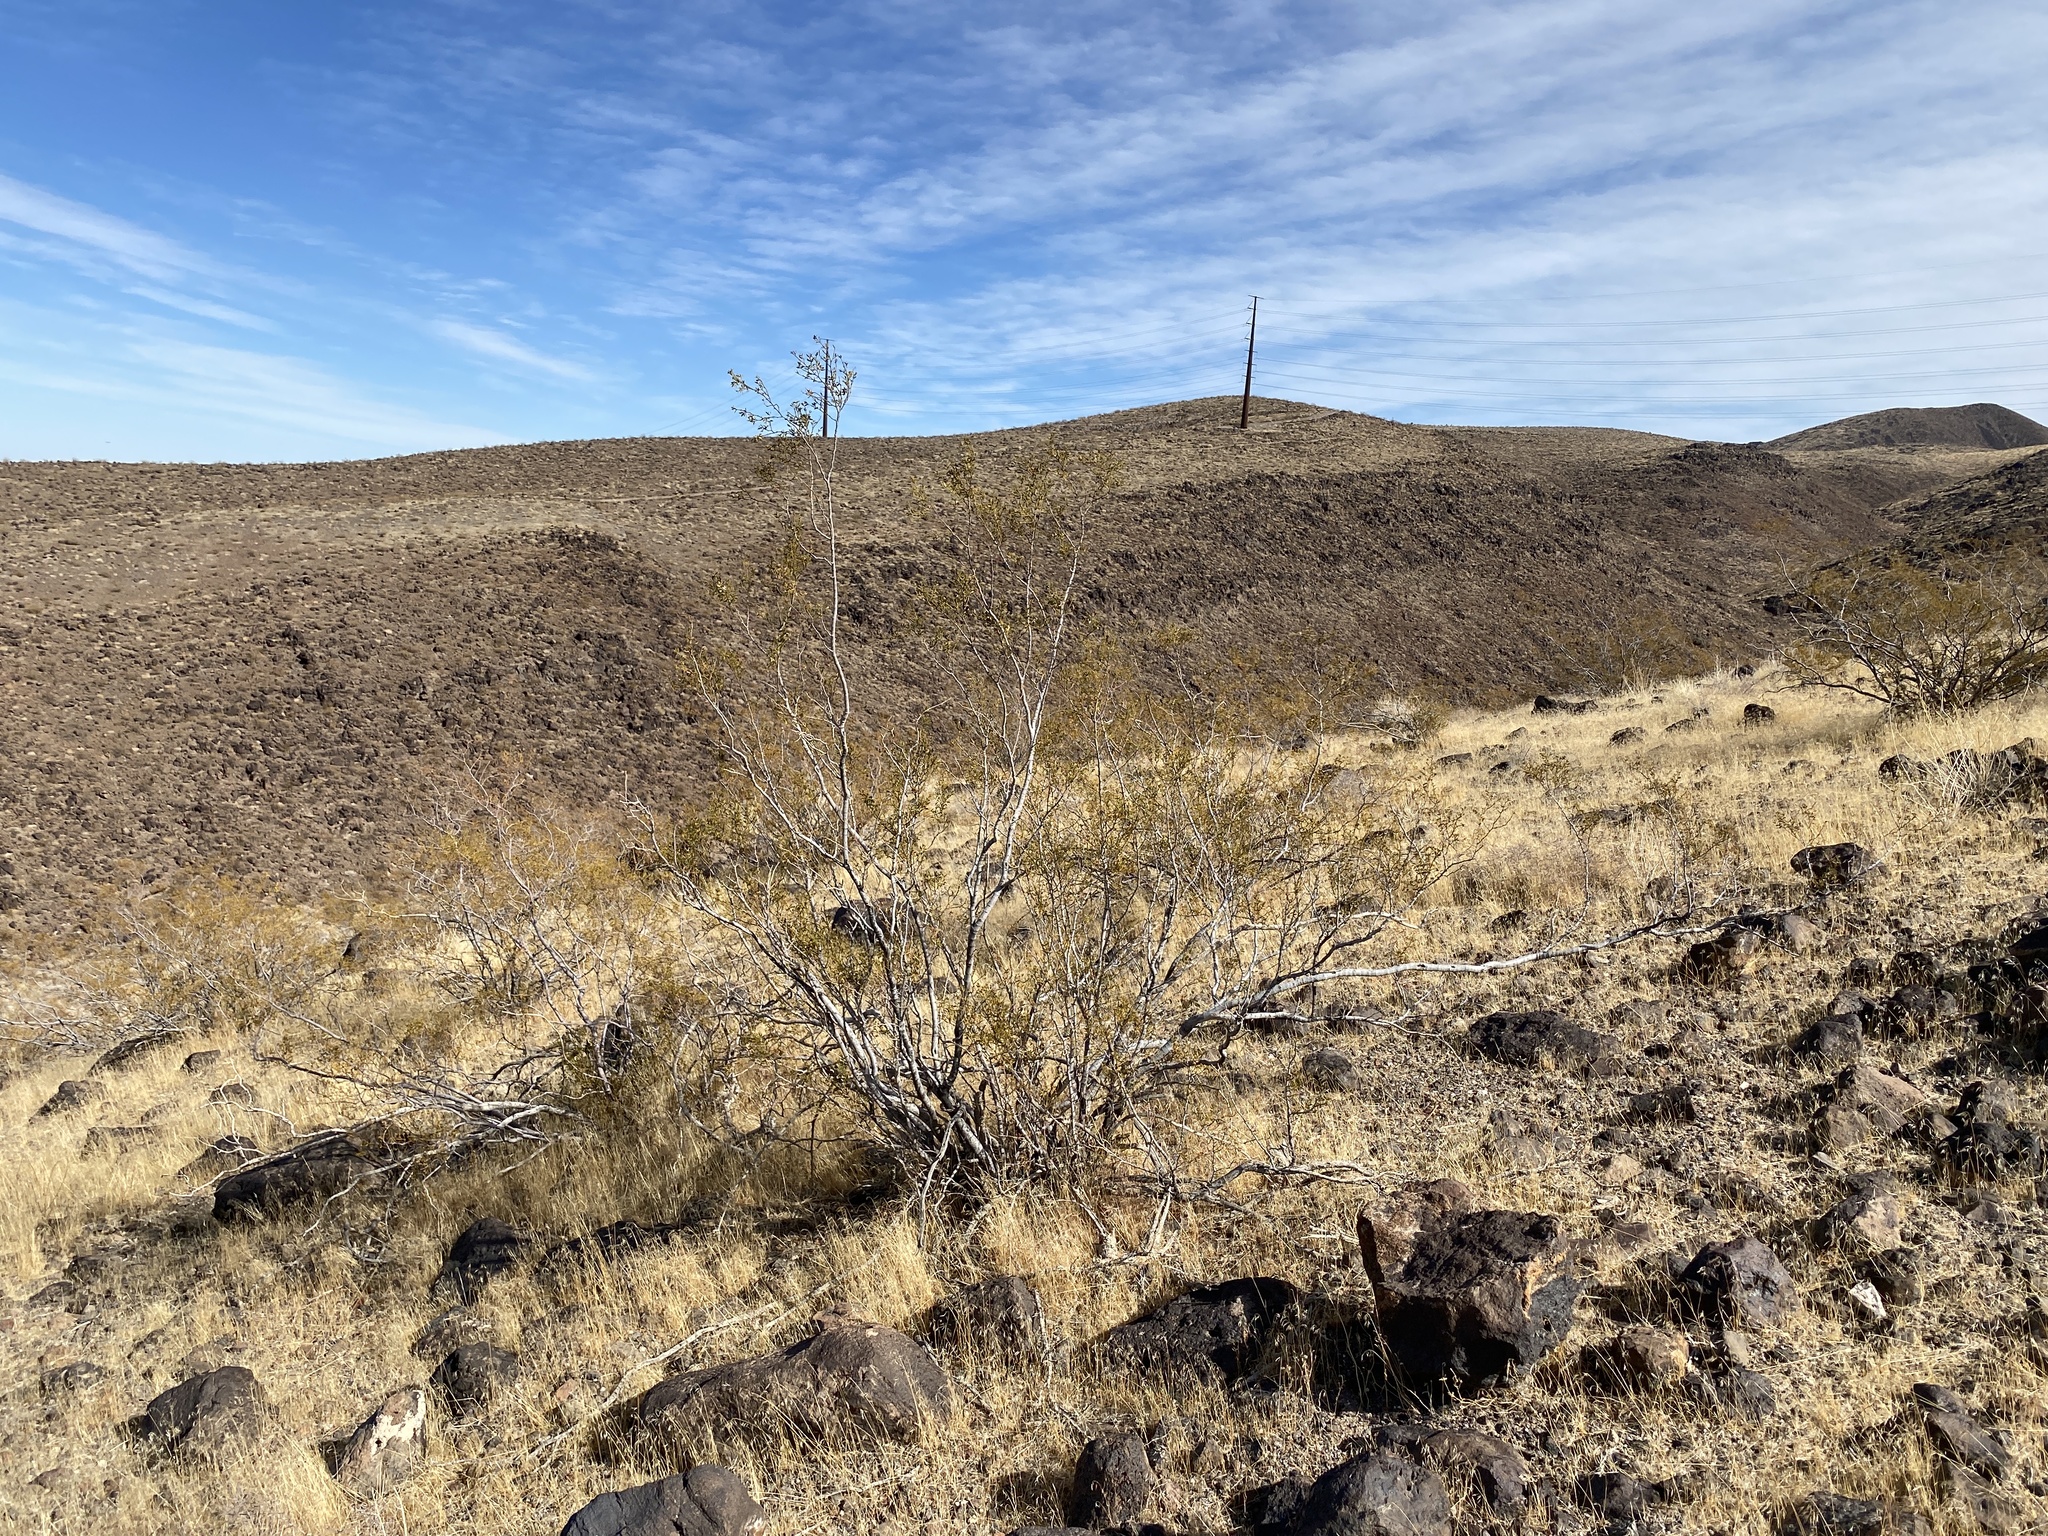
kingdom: Plantae
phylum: Tracheophyta
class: Magnoliopsida
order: Zygophyllales
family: Zygophyllaceae
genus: Larrea
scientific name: Larrea tridentata
